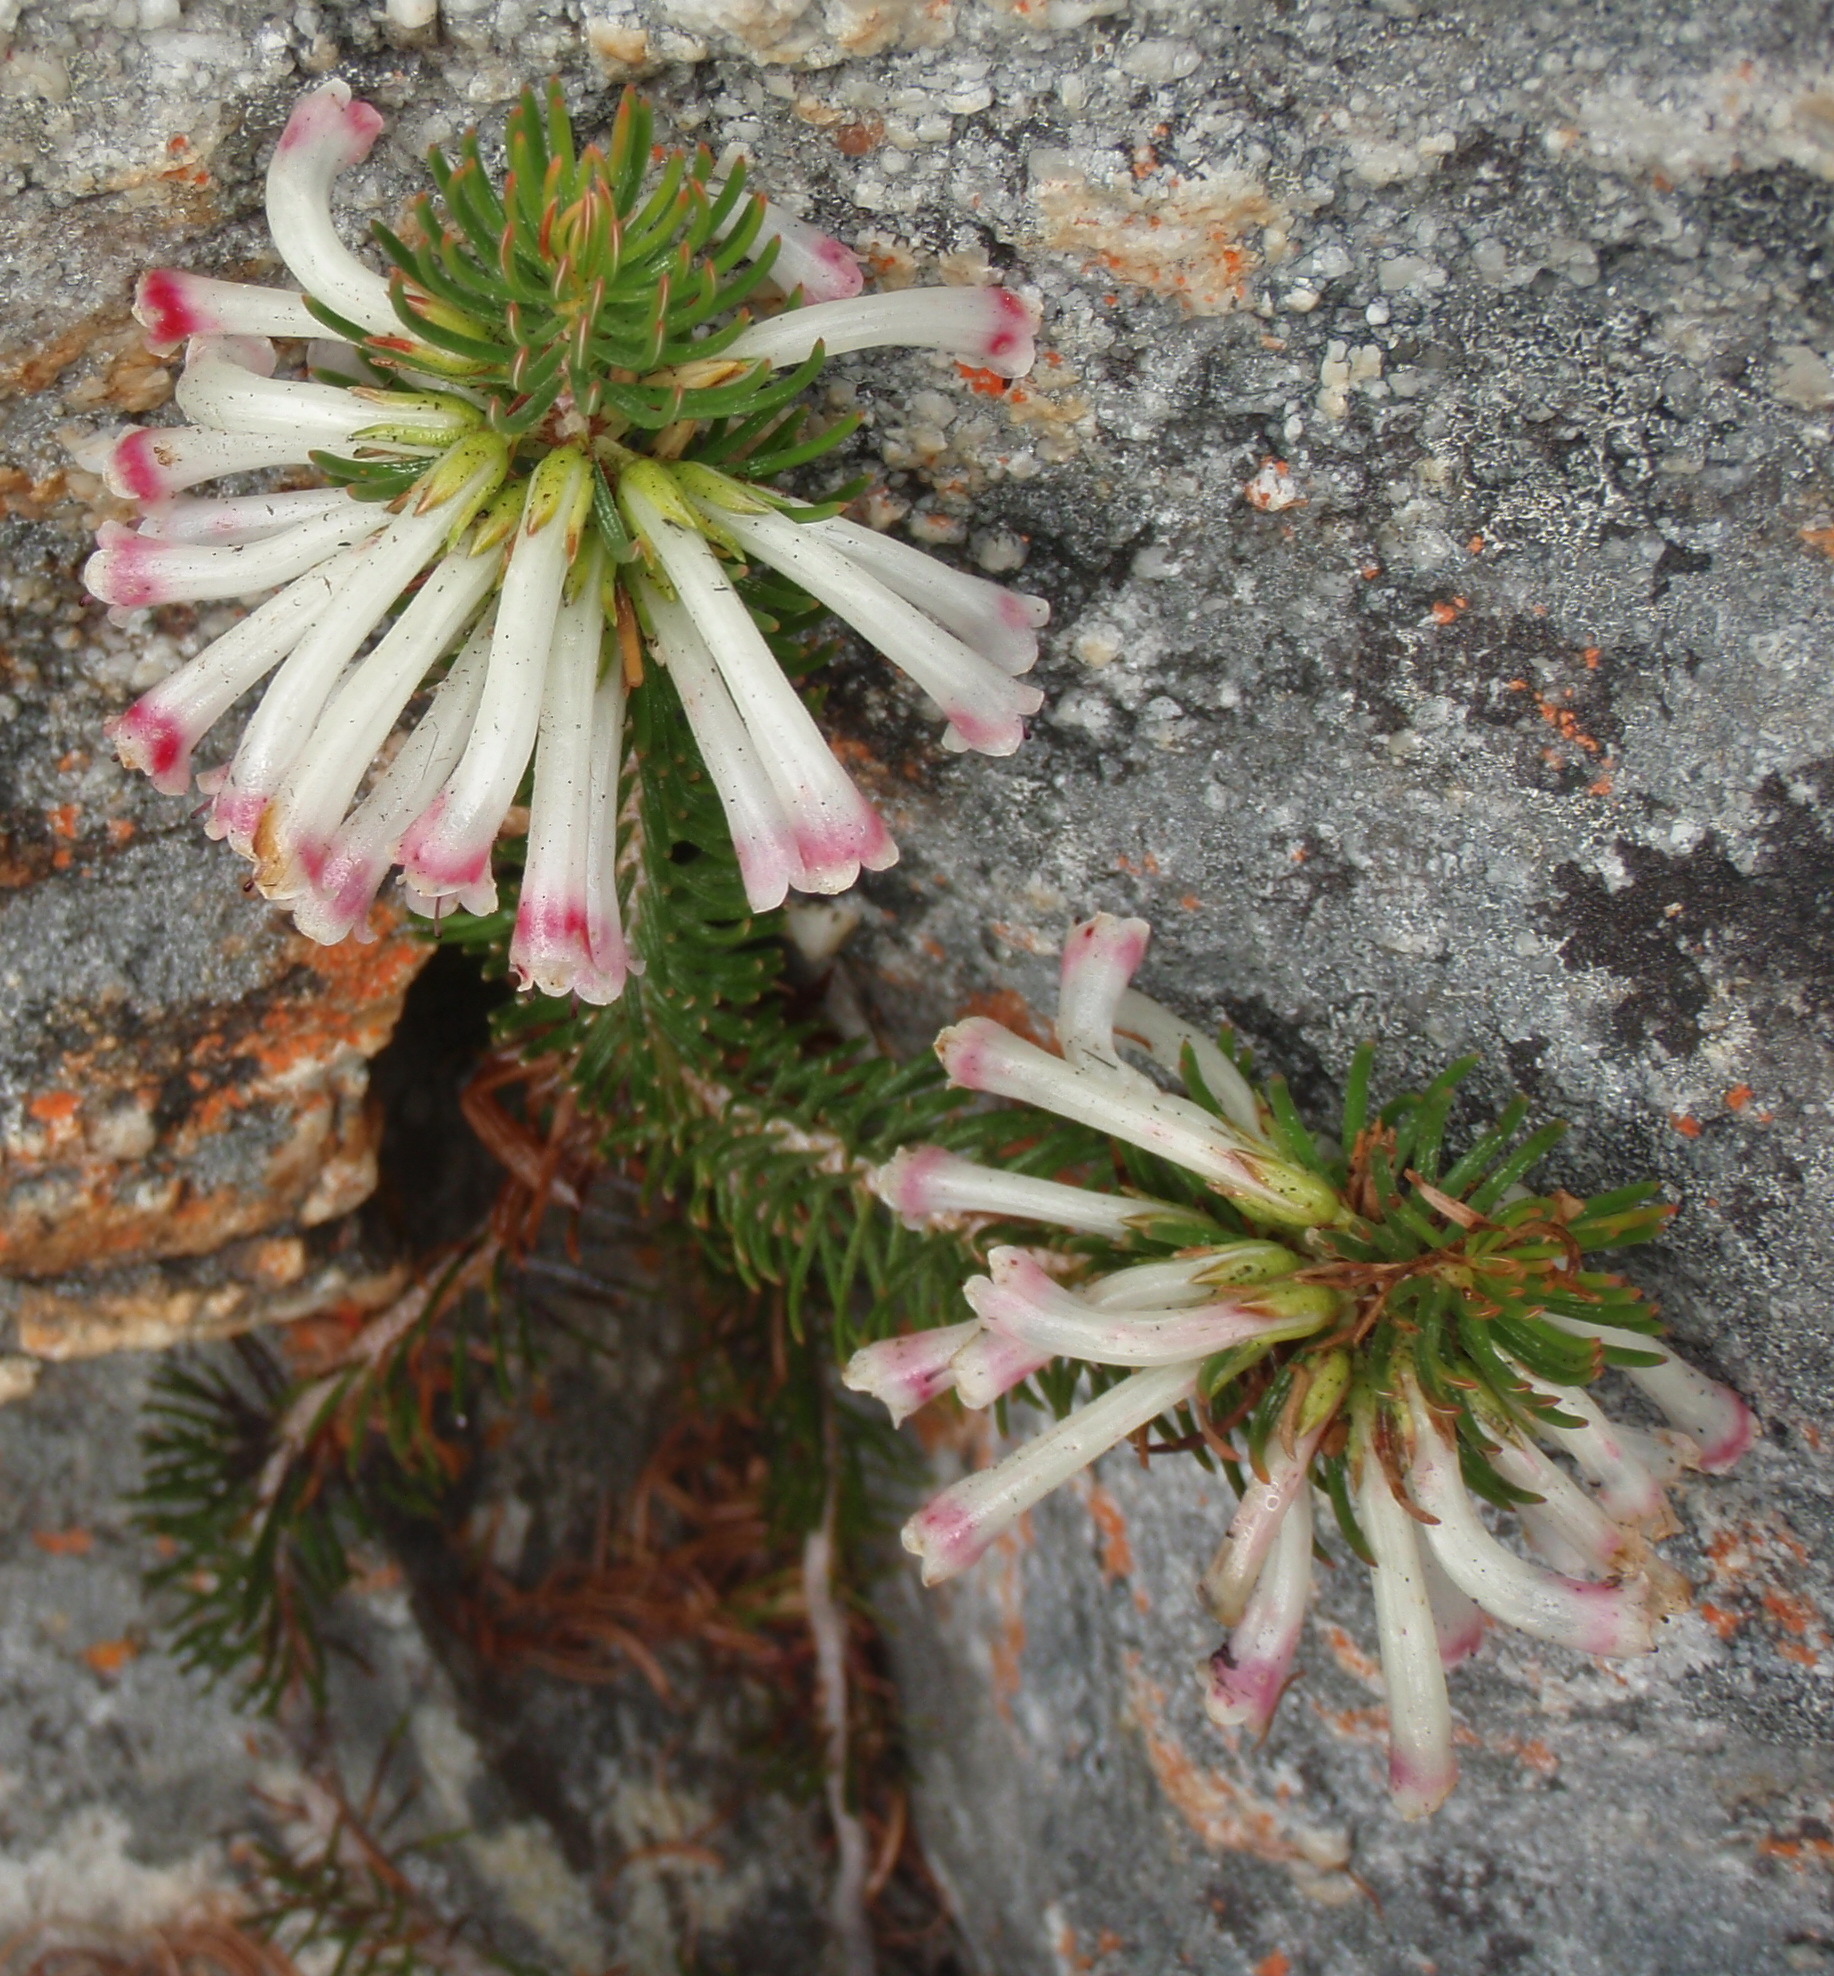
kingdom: Plantae
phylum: Tracheophyta
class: Magnoliopsida
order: Ericales
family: Ericaceae
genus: Erica
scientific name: Erica viscaria
